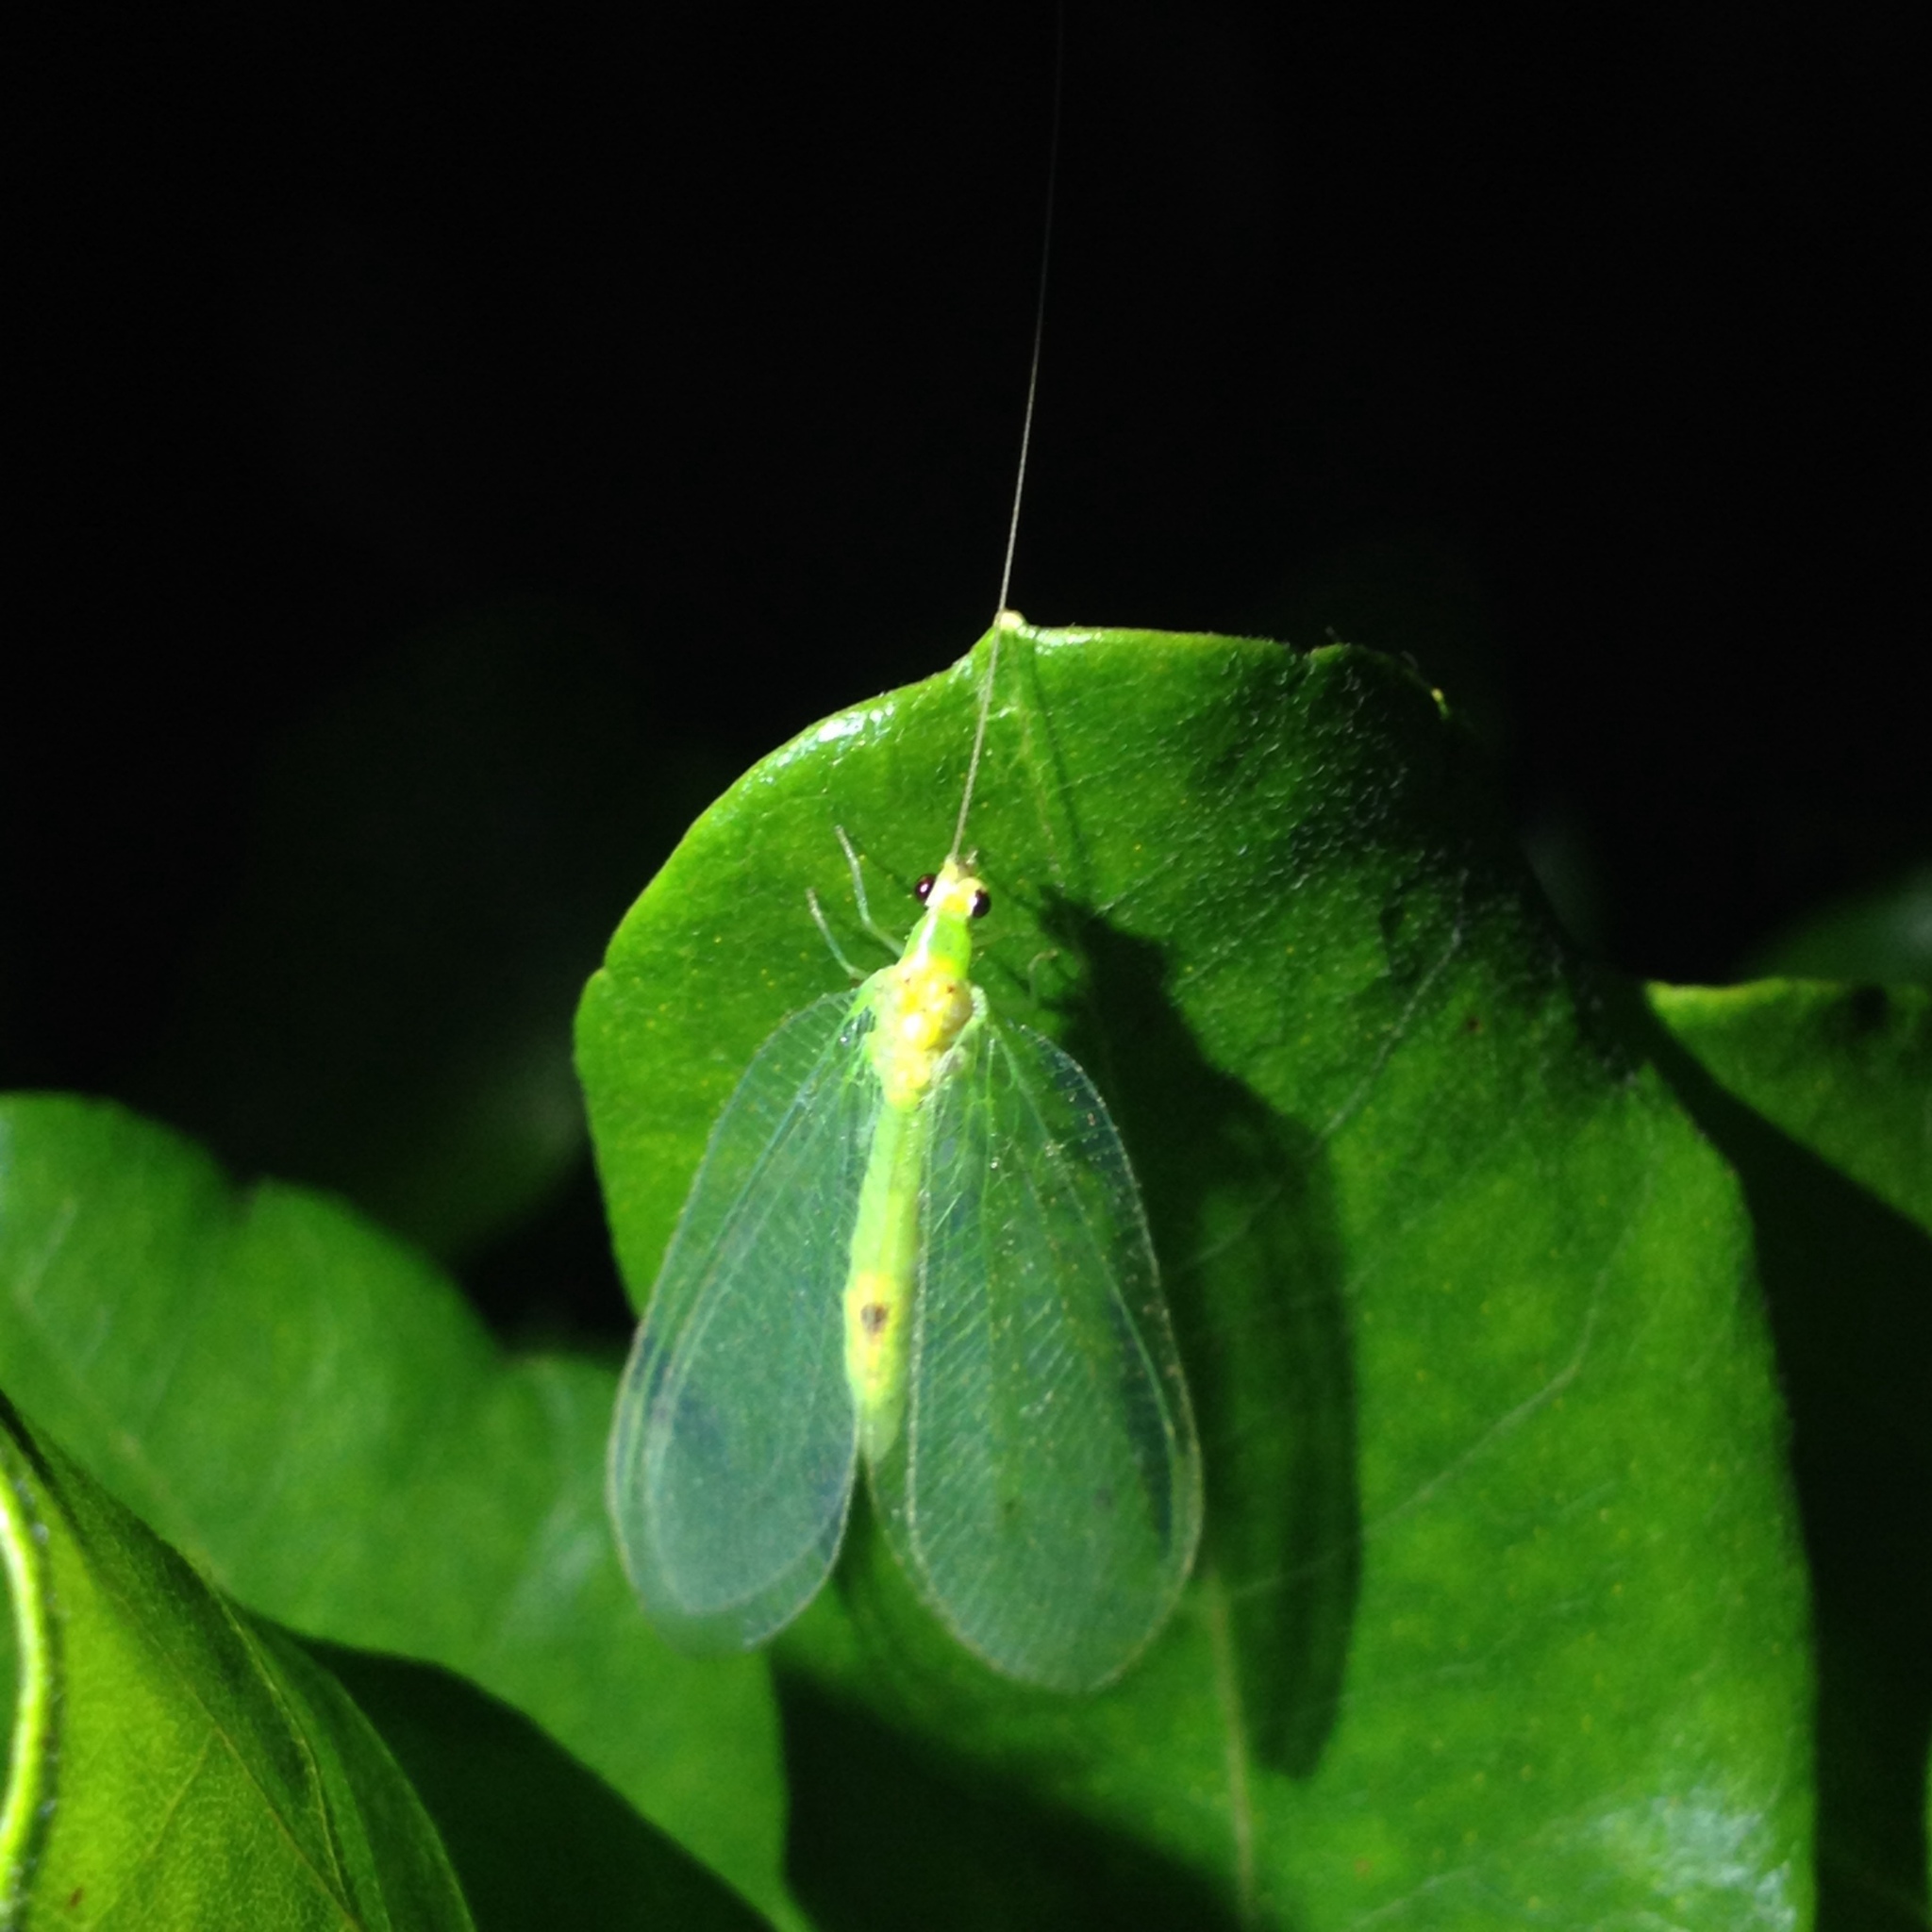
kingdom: Animalia
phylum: Arthropoda
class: Insecta
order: Neuroptera
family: Chrysopidae
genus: Leucochrysa
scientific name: Leucochrysa insularis
